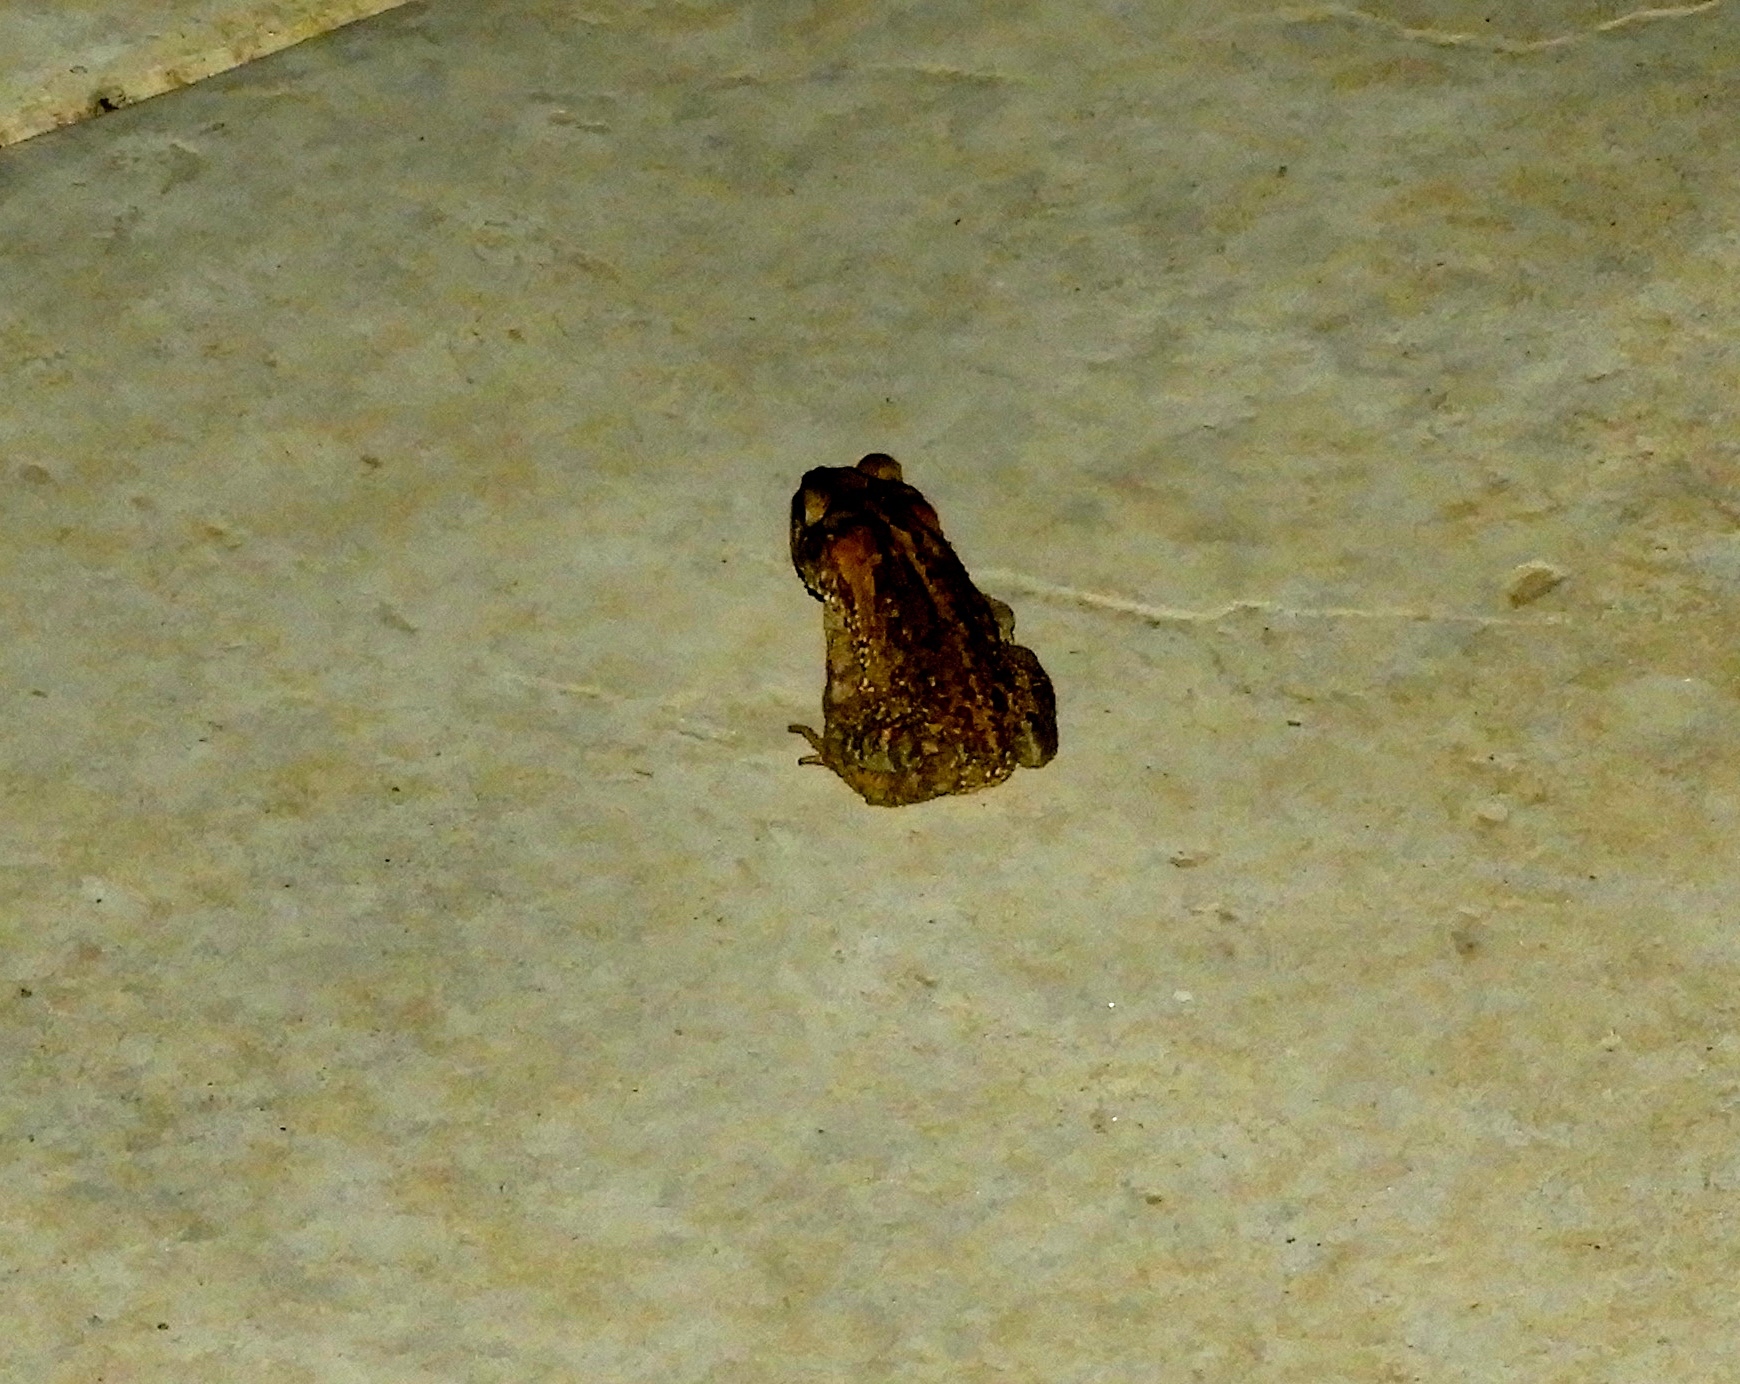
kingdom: Animalia
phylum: Chordata
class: Amphibia
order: Anura
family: Bufonidae
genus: Incilius
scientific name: Incilius mazatlanensis
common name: Sinaloa toad
